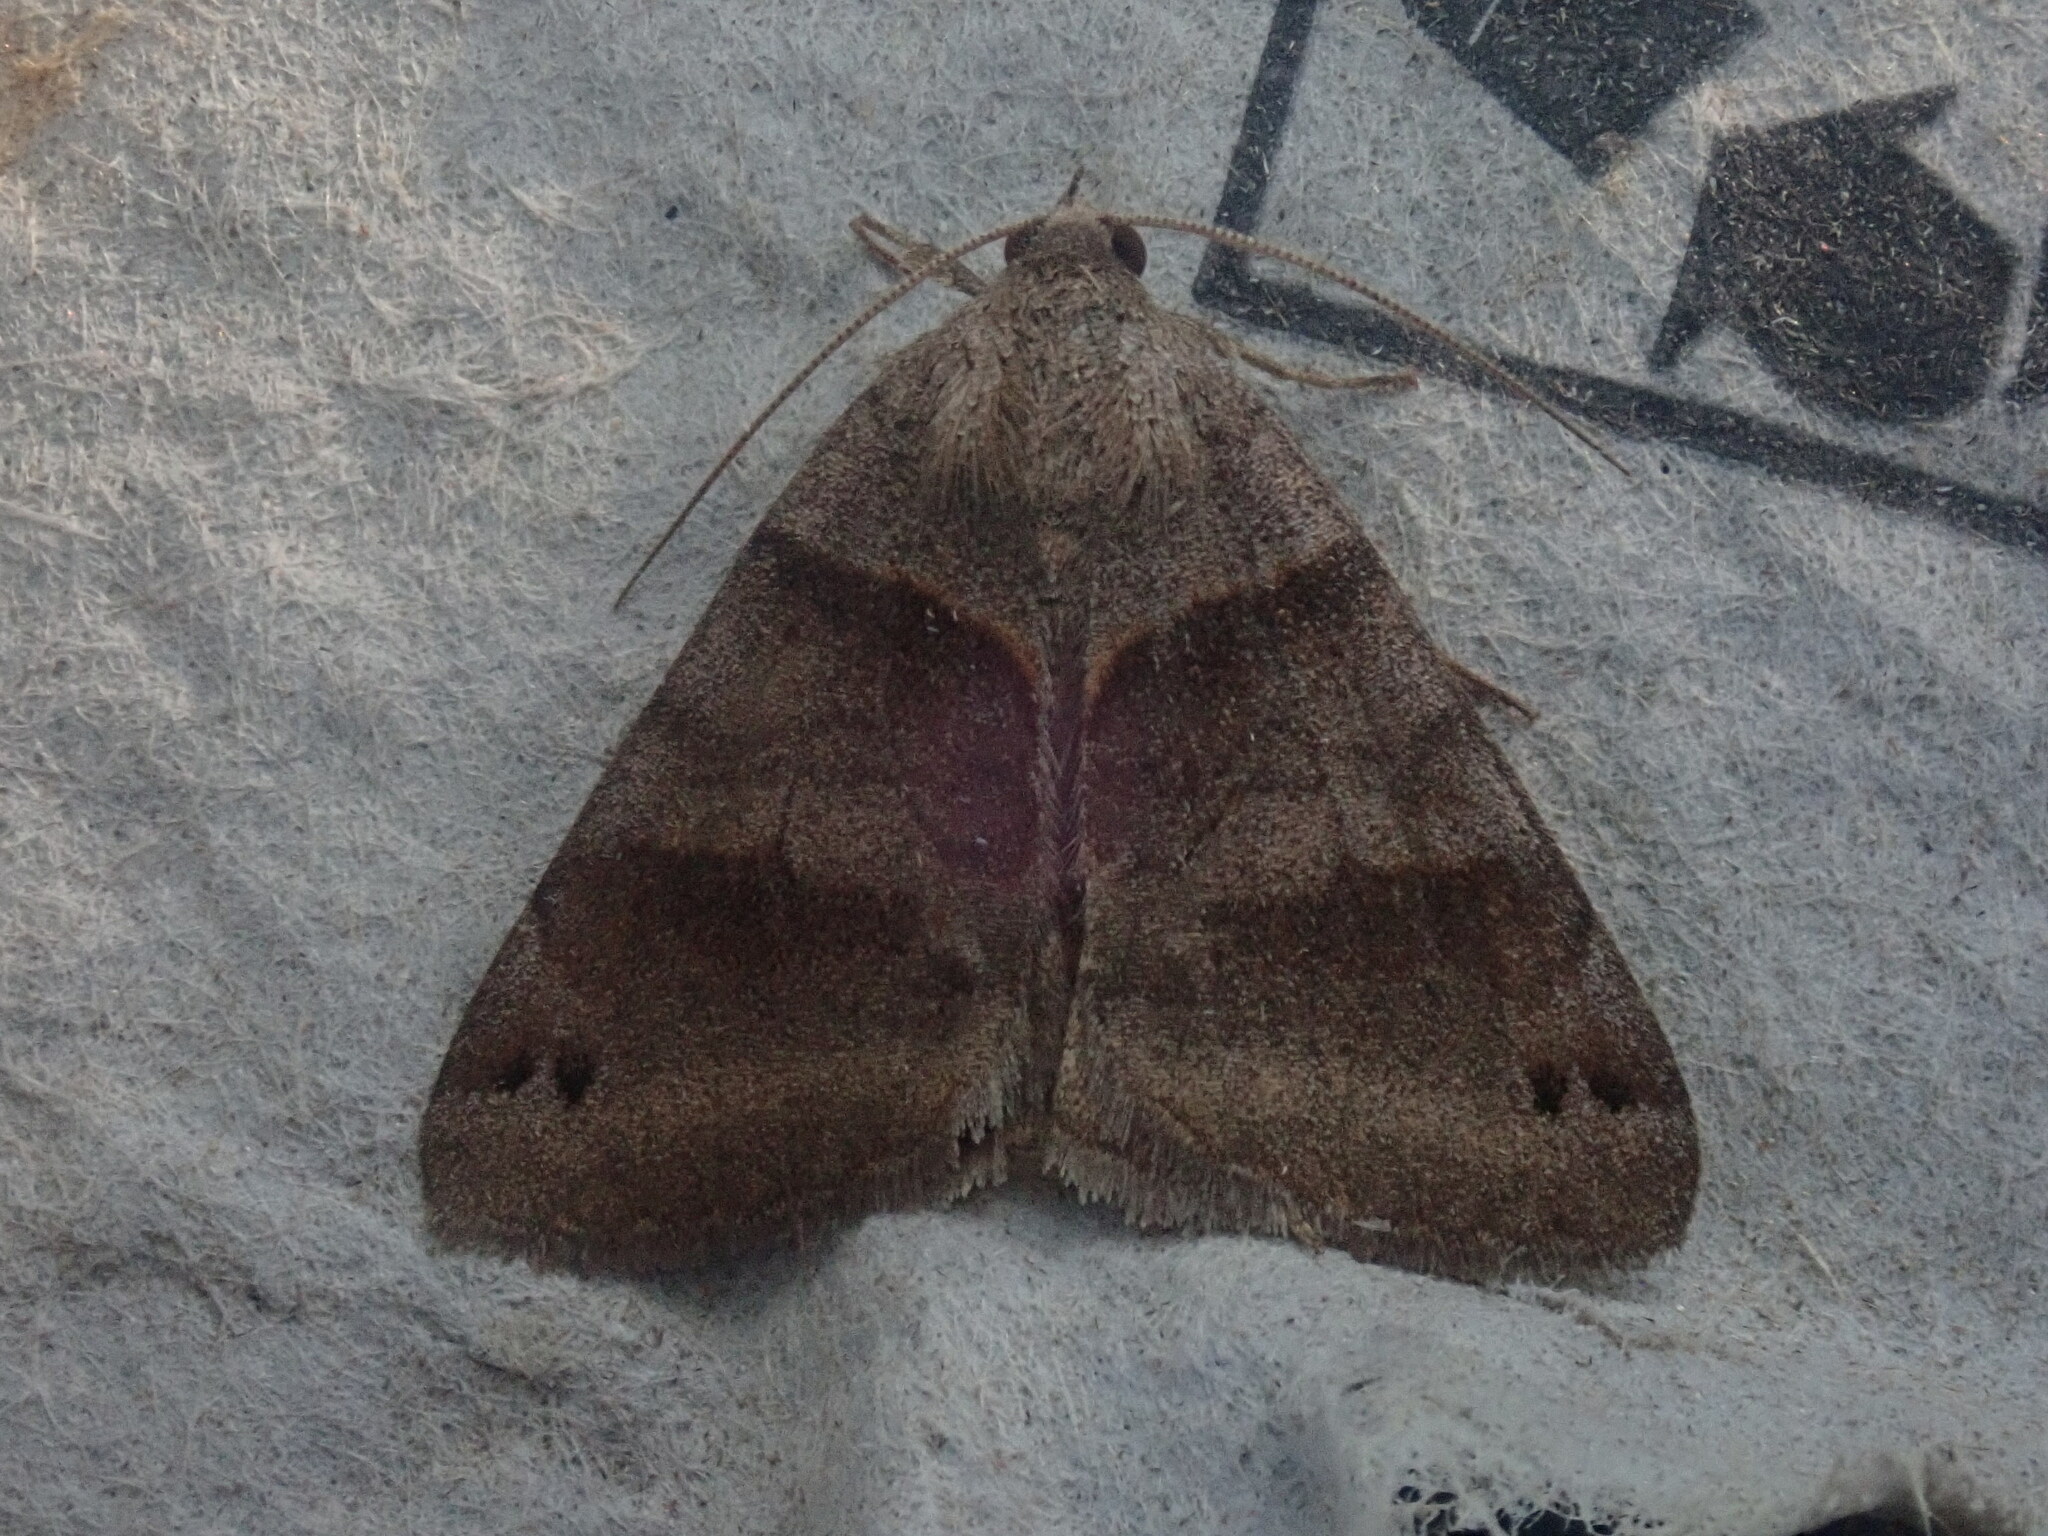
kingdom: Animalia
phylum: Arthropoda
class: Insecta
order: Lepidoptera
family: Erebidae
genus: Caenurgina
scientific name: Caenurgina crassiuscula
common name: Double-barred
